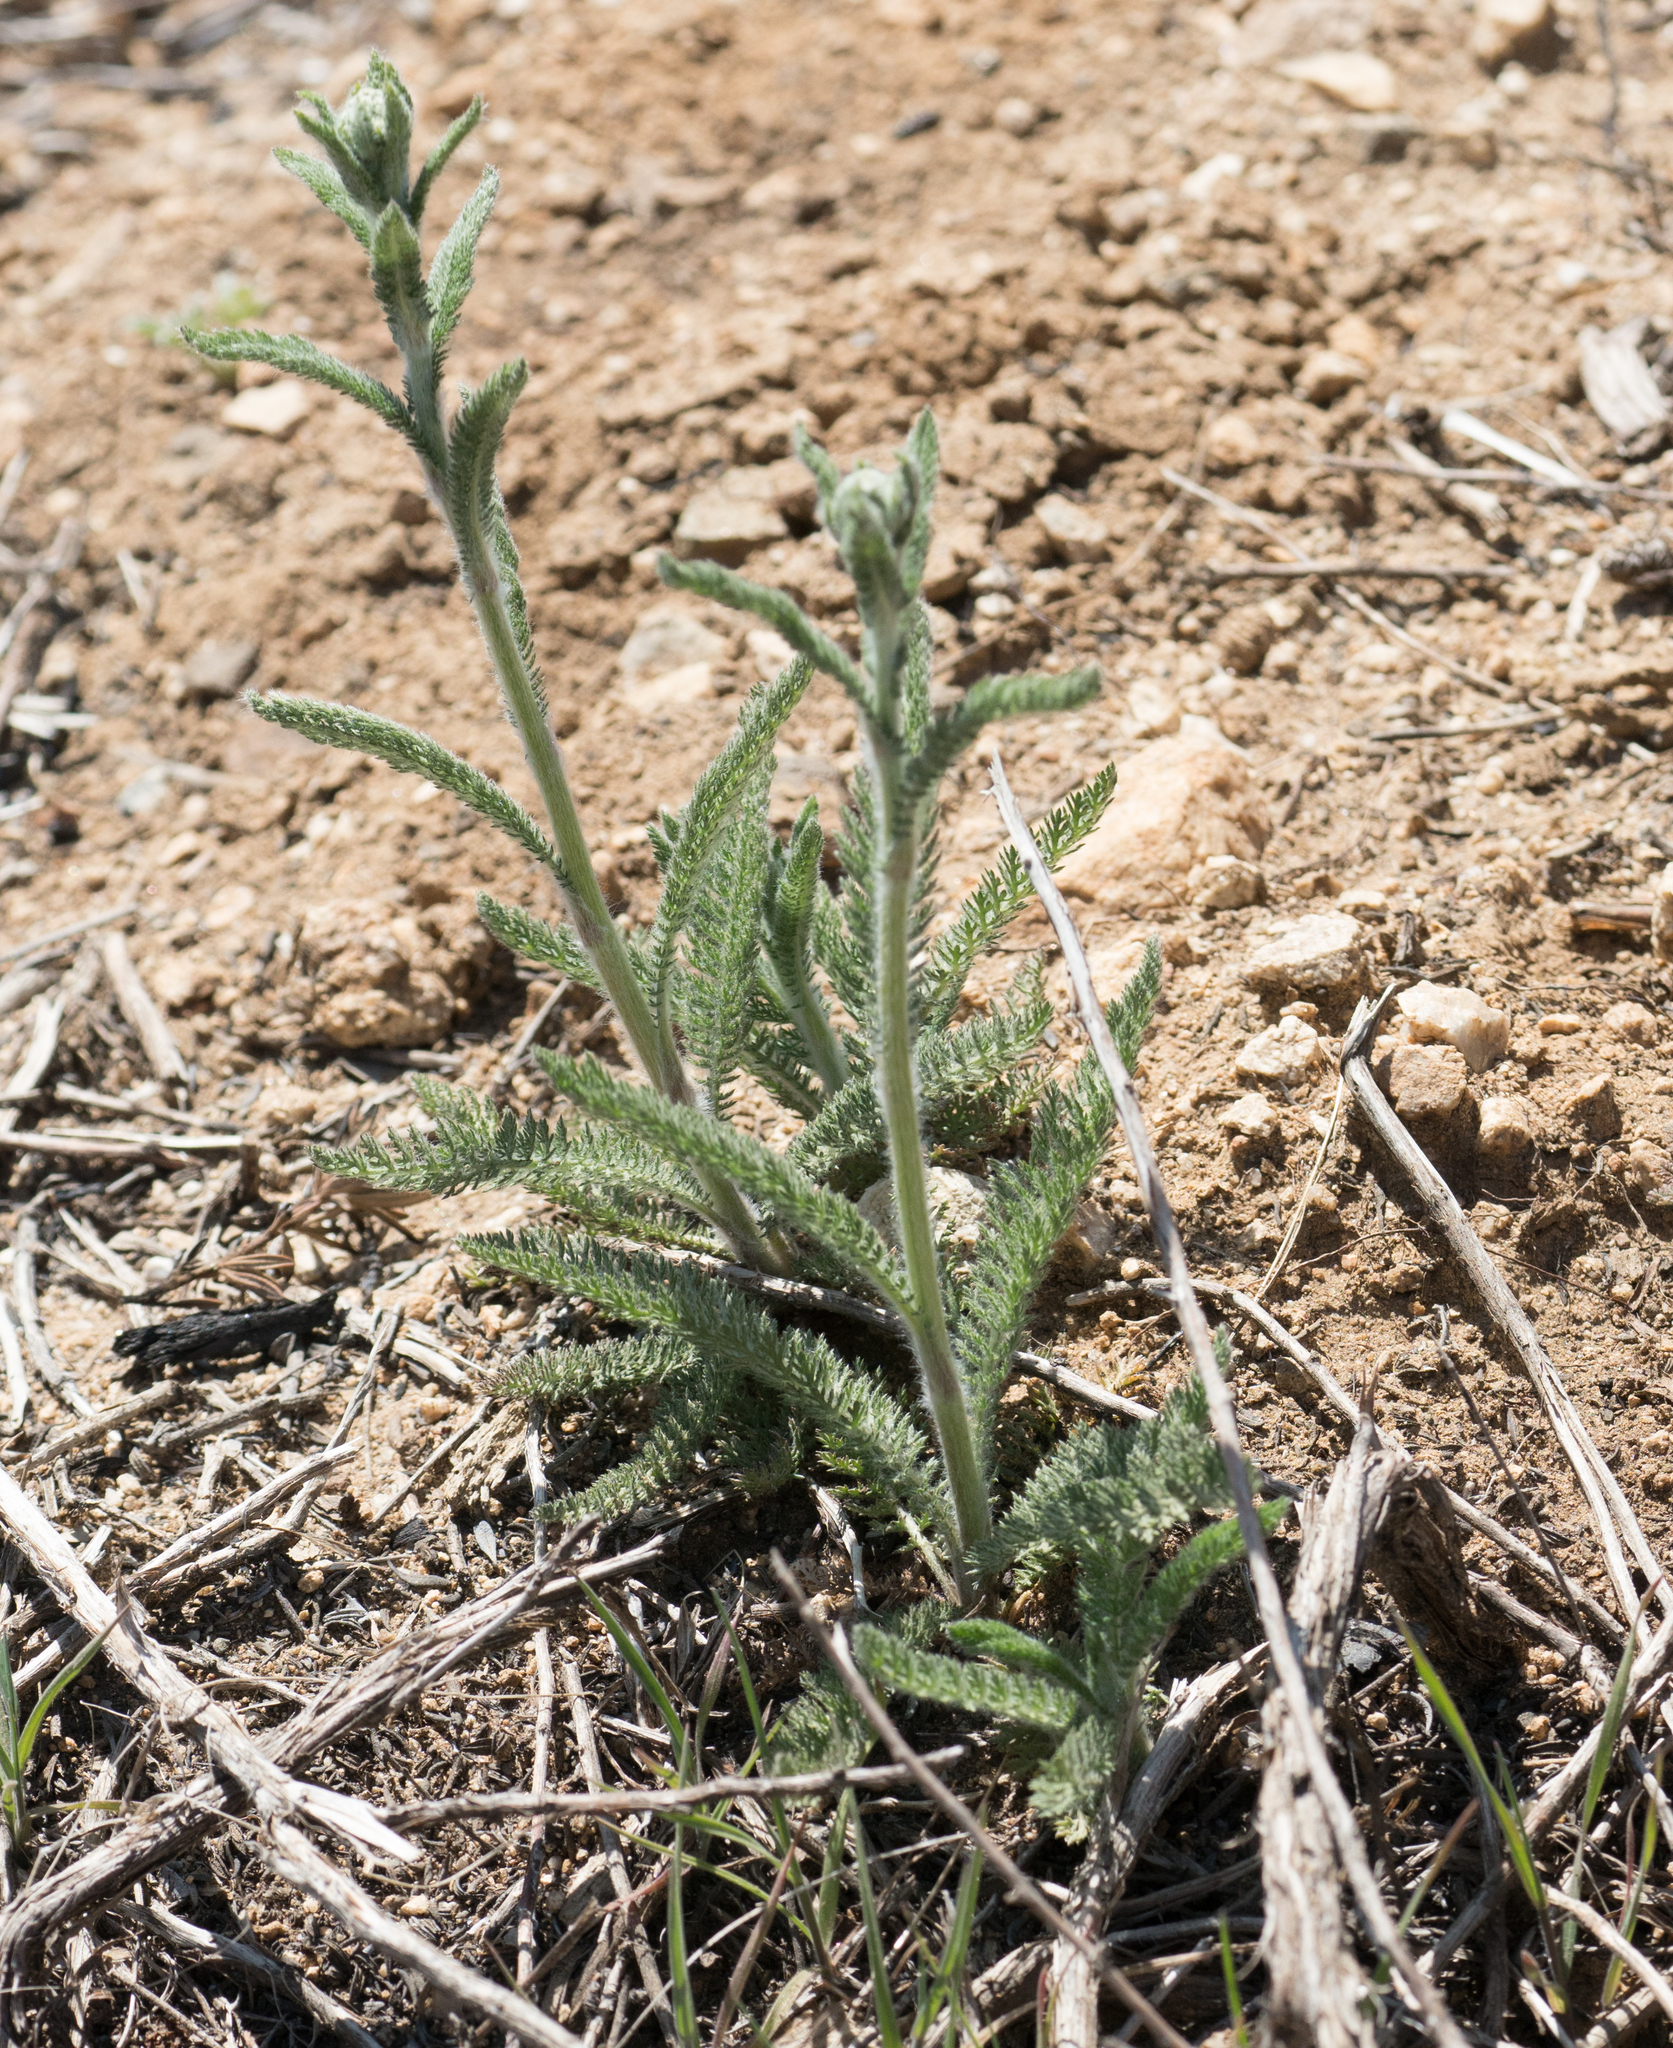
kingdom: Plantae
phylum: Tracheophyta
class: Magnoliopsida
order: Asterales
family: Asteraceae
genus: Achillea
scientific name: Achillea millefolium
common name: Yarrow
